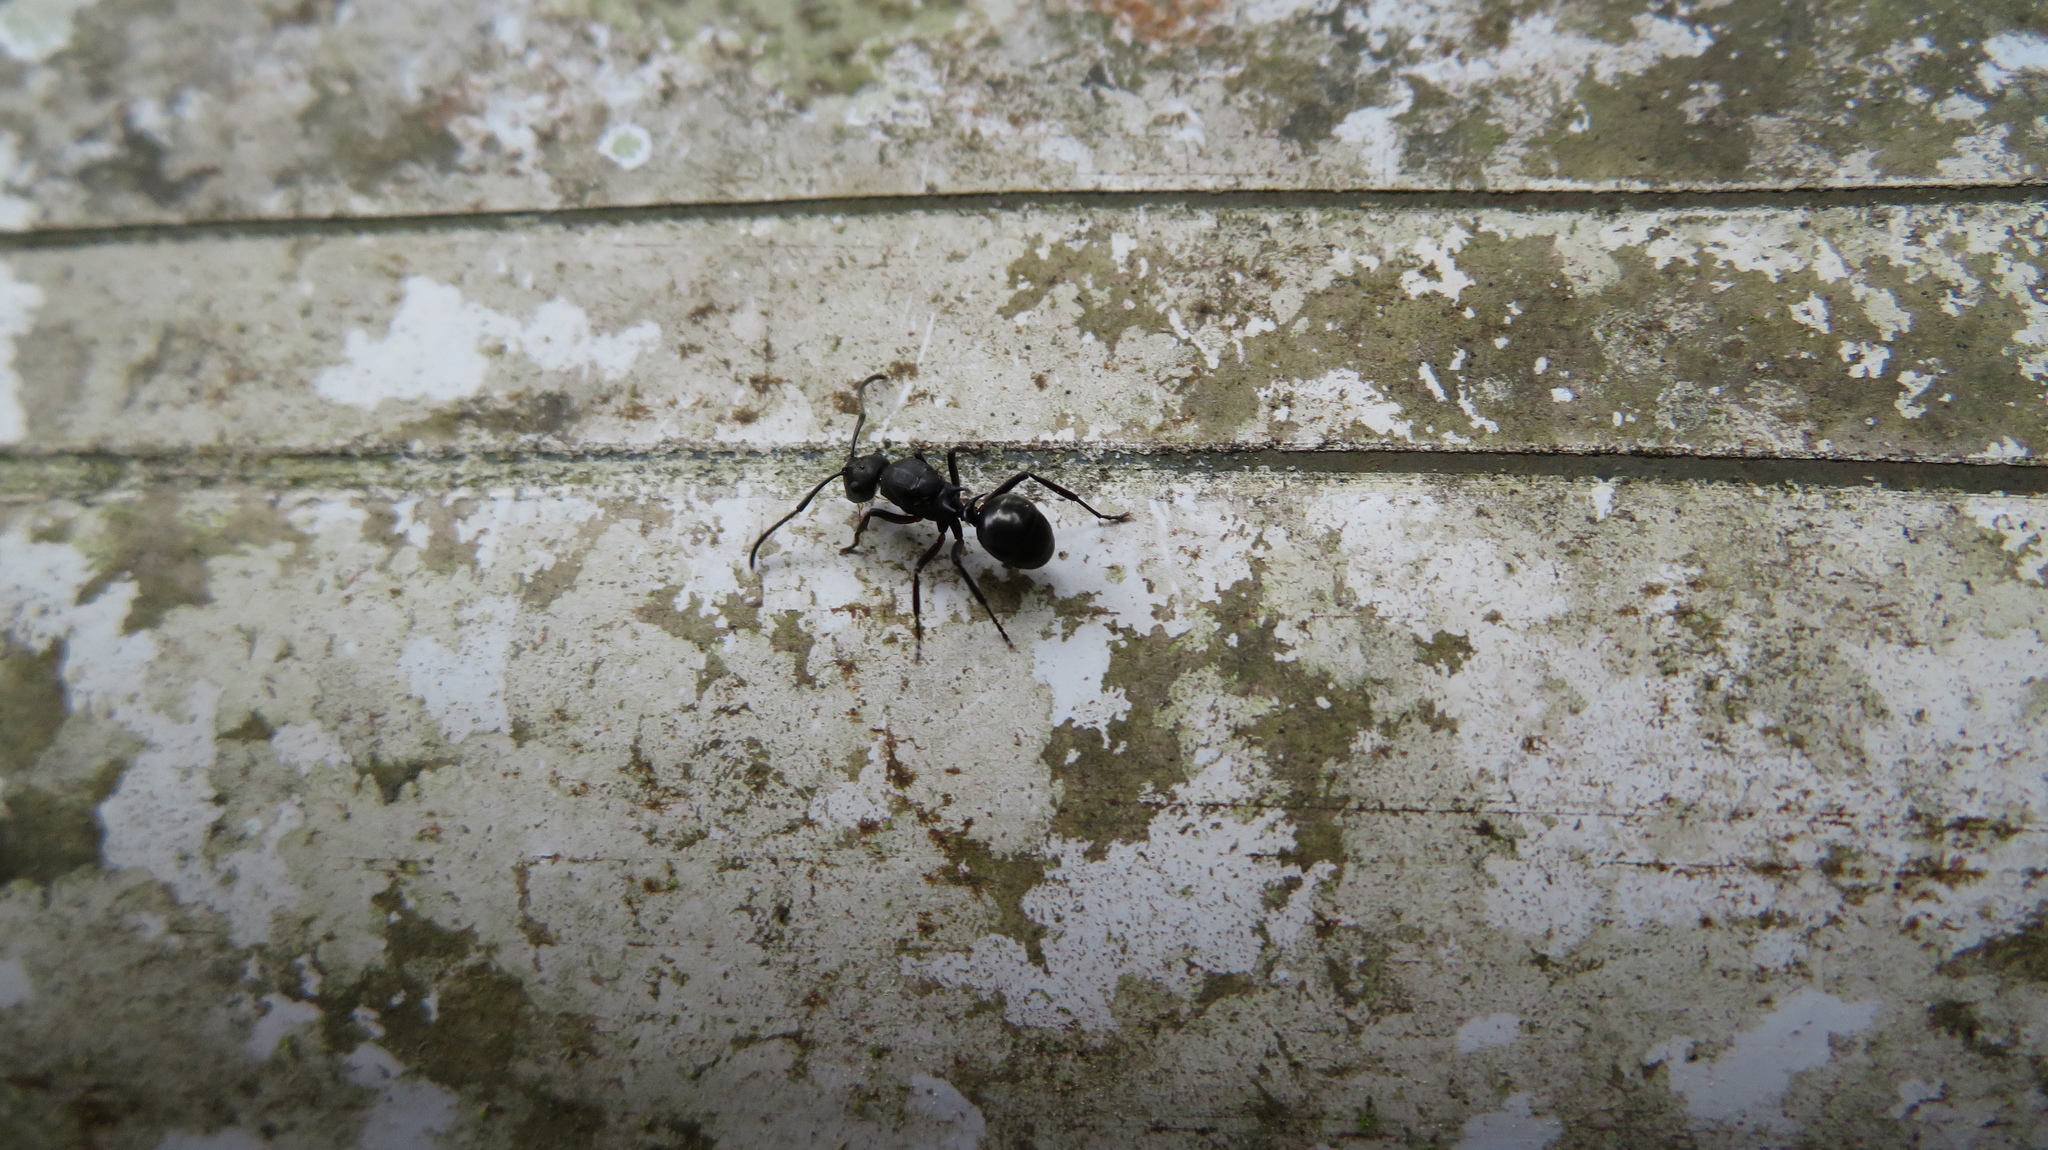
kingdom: Animalia
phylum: Arthropoda
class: Insecta
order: Hymenoptera
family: Formicidae
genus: Polyrhachis
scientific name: Polyrhachis moesta
